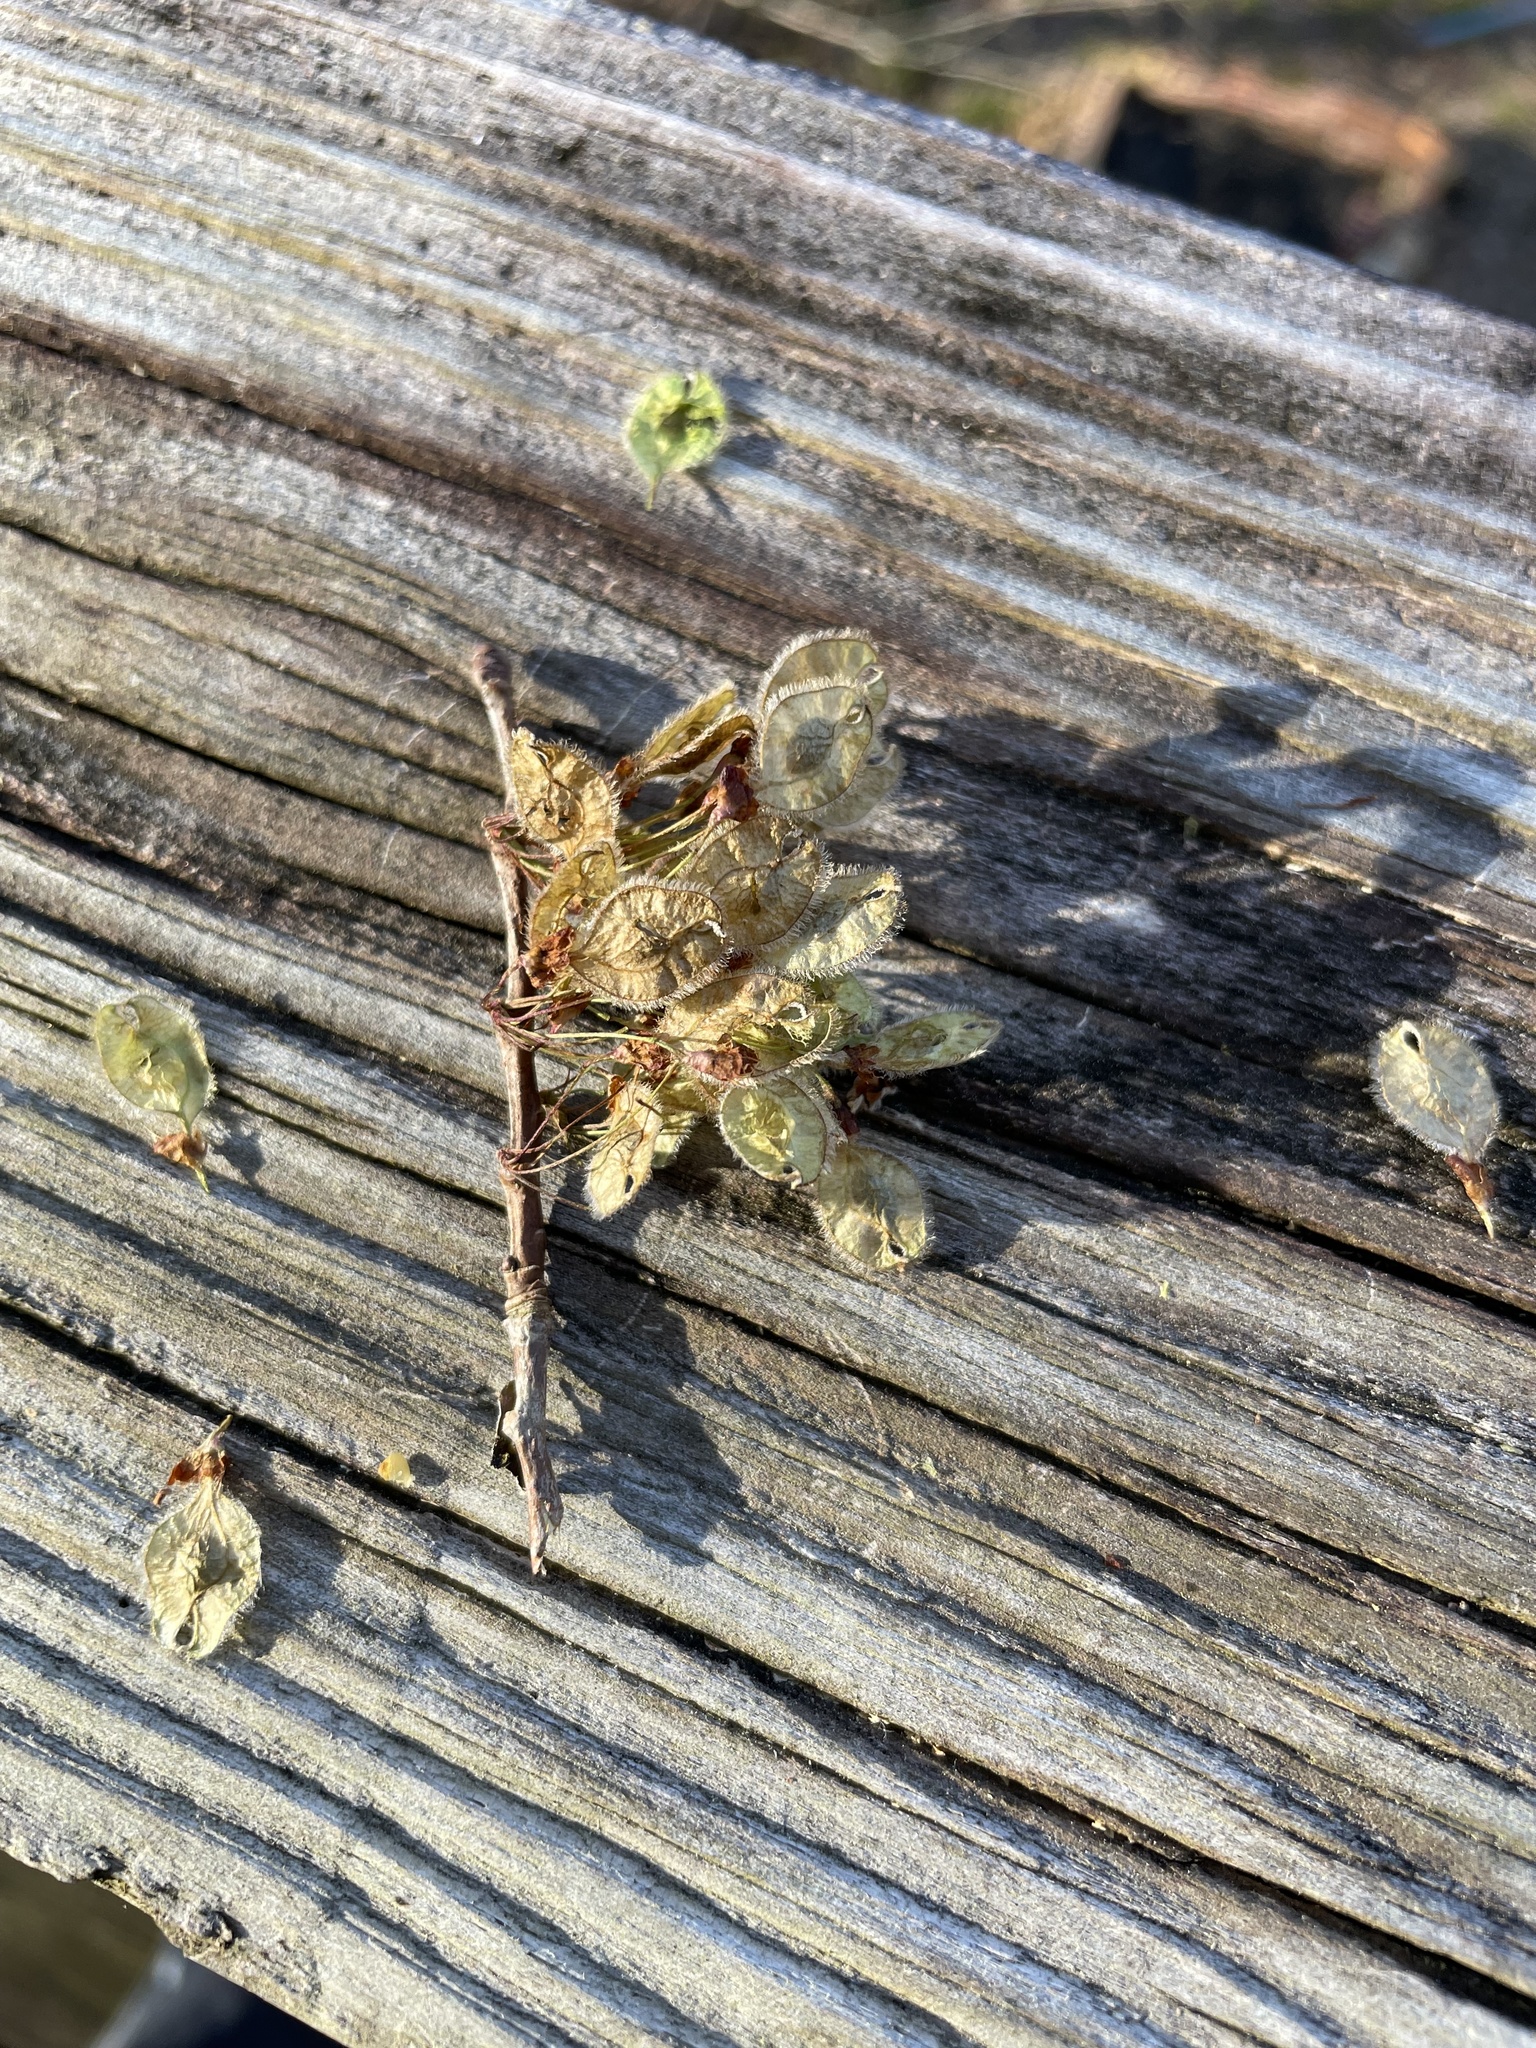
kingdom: Plantae
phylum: Tracheophyta
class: Magnoliopsida
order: Rosales
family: Ulmaceae
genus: Ulmus
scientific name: Ulmus americana
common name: American elm
